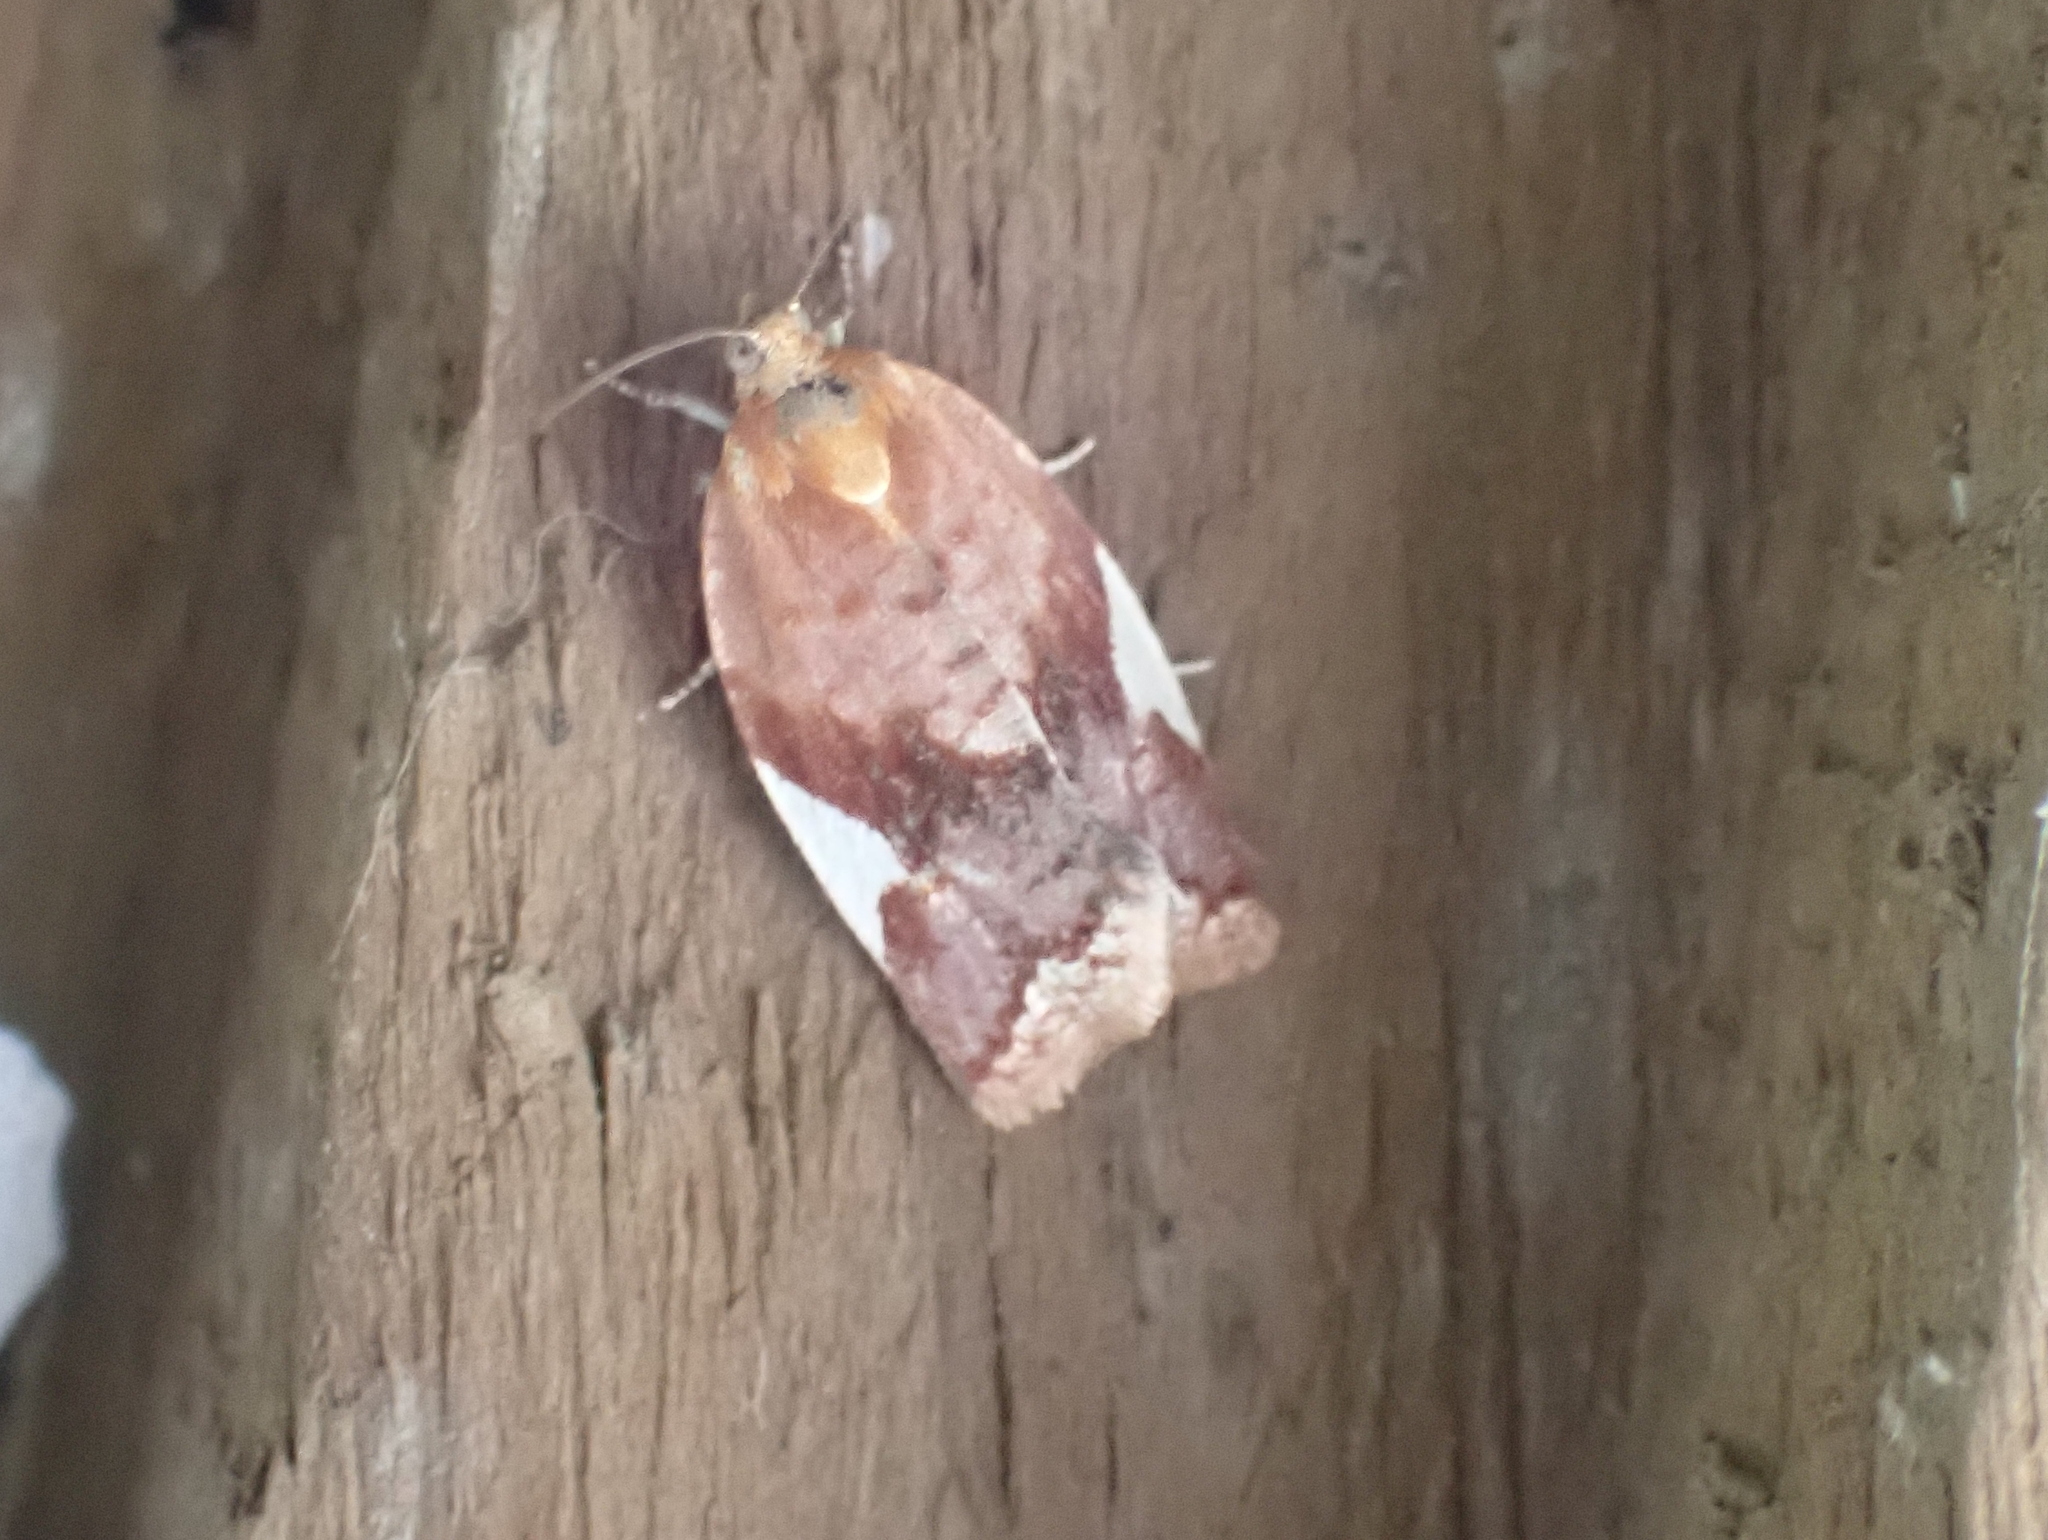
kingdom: Animalia
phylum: Arthropoda
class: Insecta
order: Lepidoptera
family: Tortricidae
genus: Clepsis
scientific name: Clepsis persicana
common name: White triangle tortrix
